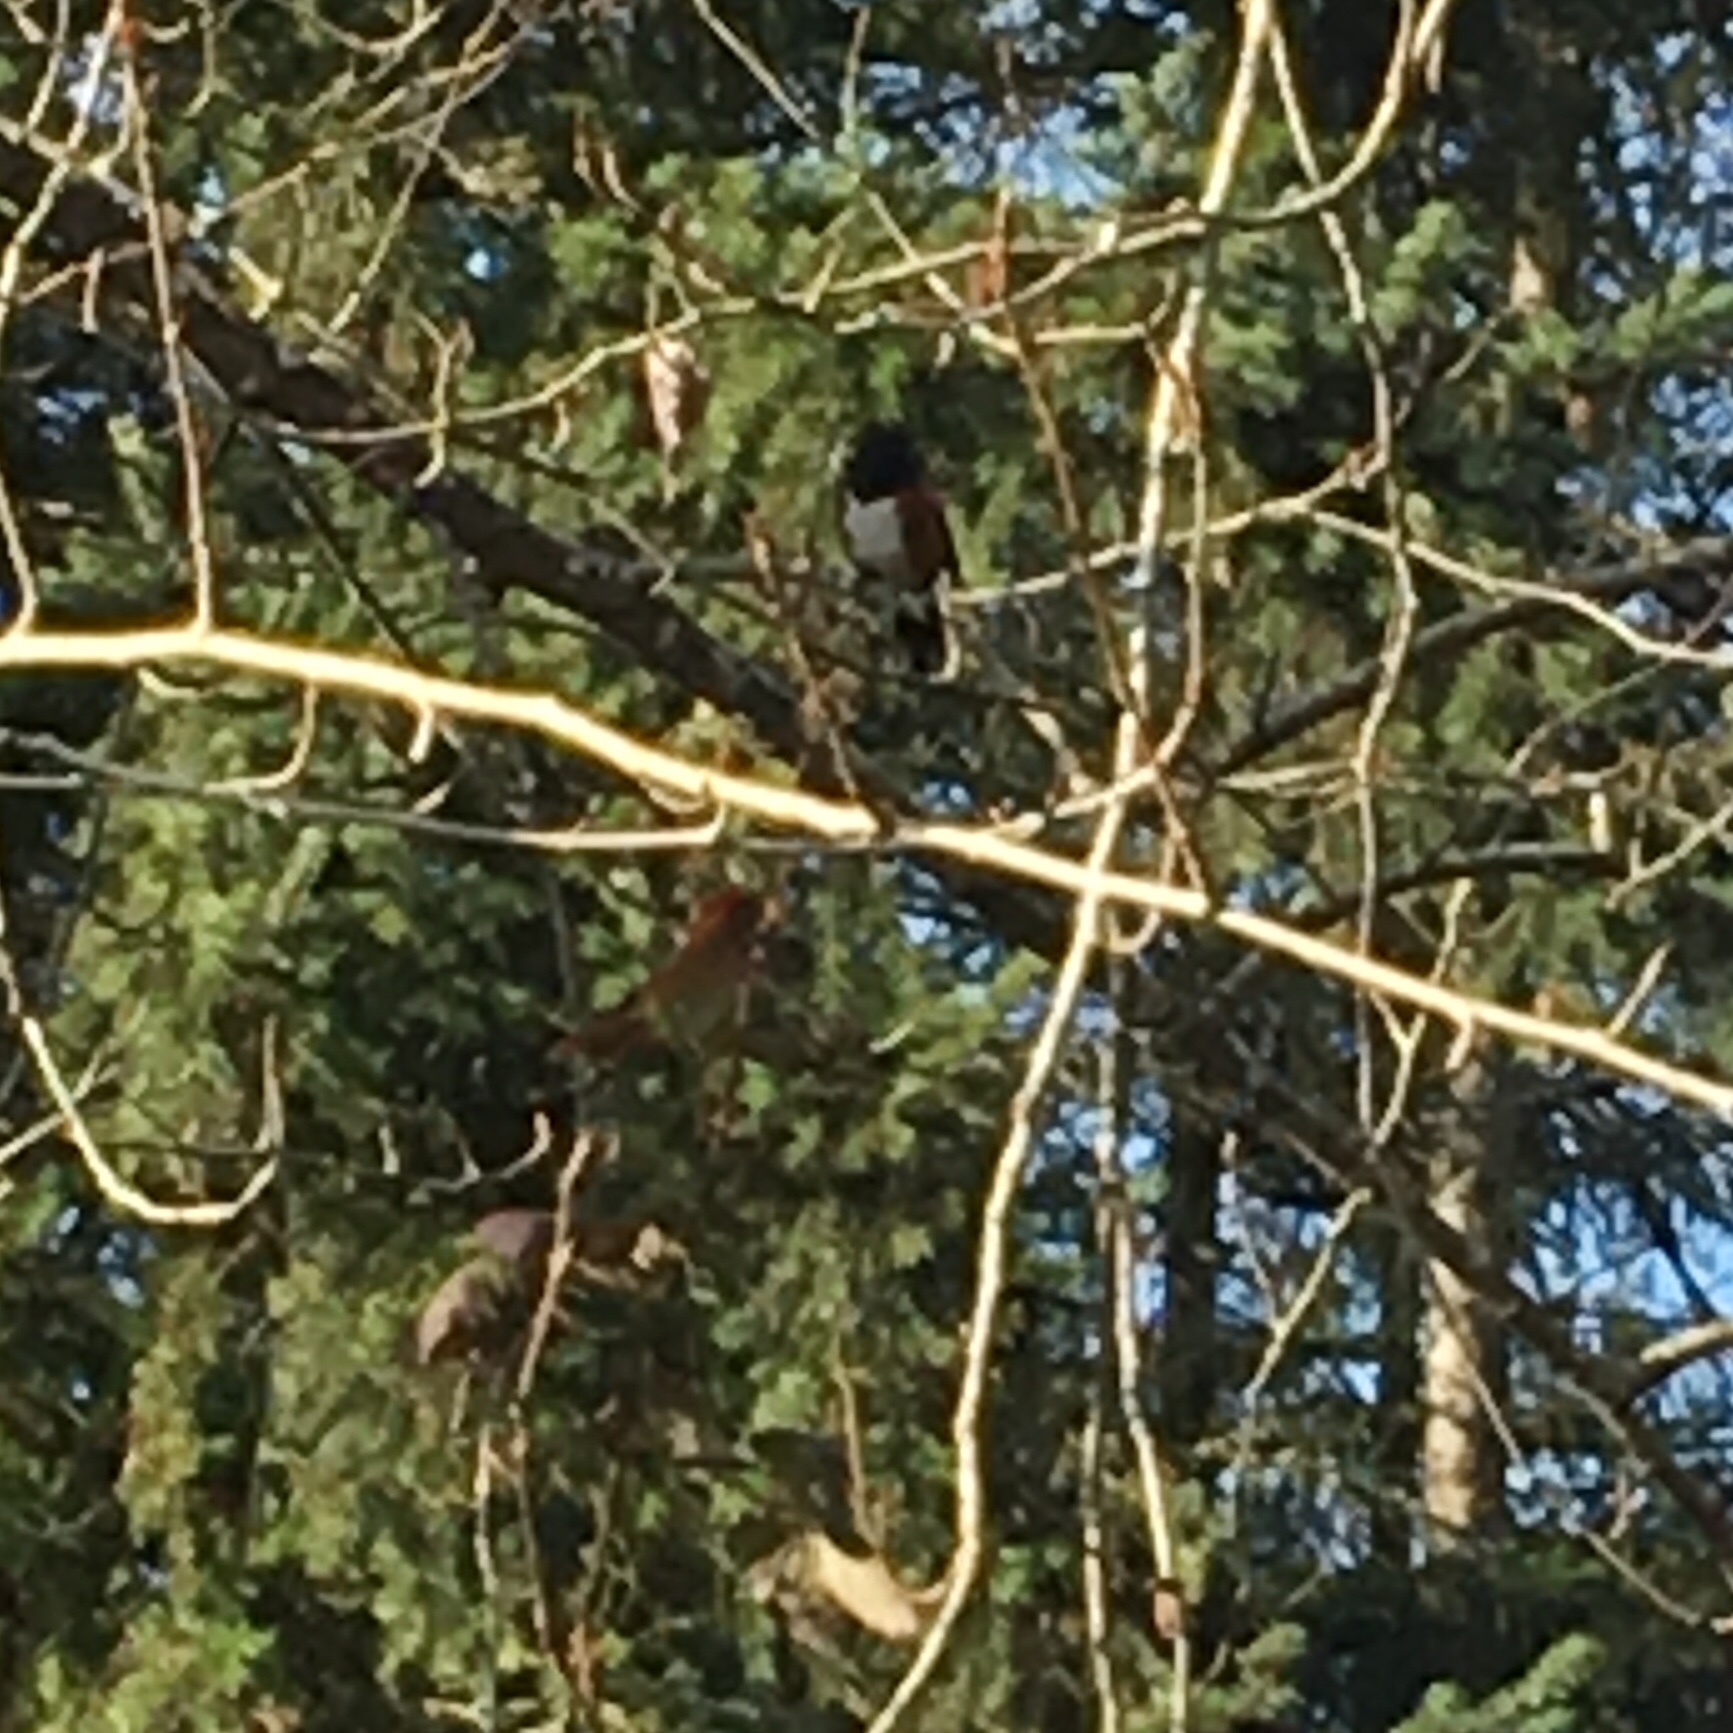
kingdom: Animalia
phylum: Chordata
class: Aves
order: Passeriformes
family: Passerellidae
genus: Pipilo
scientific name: Pipilo maculatus
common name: Spotted towhee
